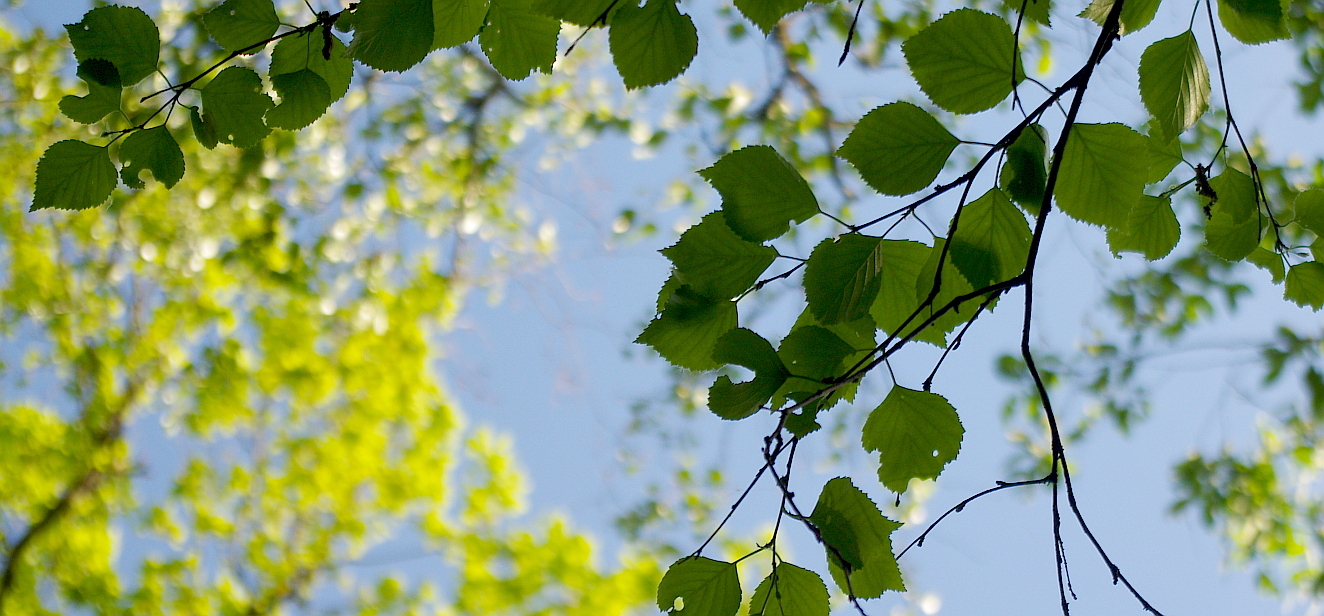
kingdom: Plantae
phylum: Tracheophyta
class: Magnoliopsida
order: Fagales
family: Betulaceae
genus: Betula
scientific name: Betula pendula
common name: Silver birch
